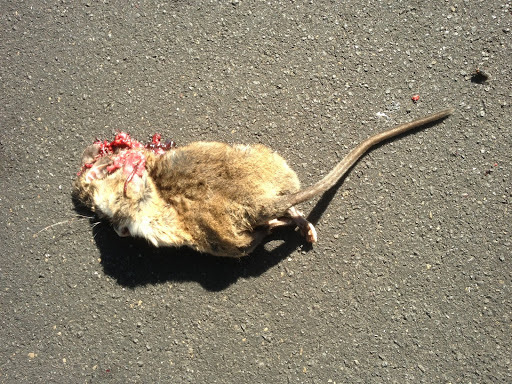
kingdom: Animalia
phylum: Chordata
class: Mammalia
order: Rodentia
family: Cricetidae
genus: Neotoma
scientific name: Neotoma fuscipes
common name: Dusky-footed woodrat
